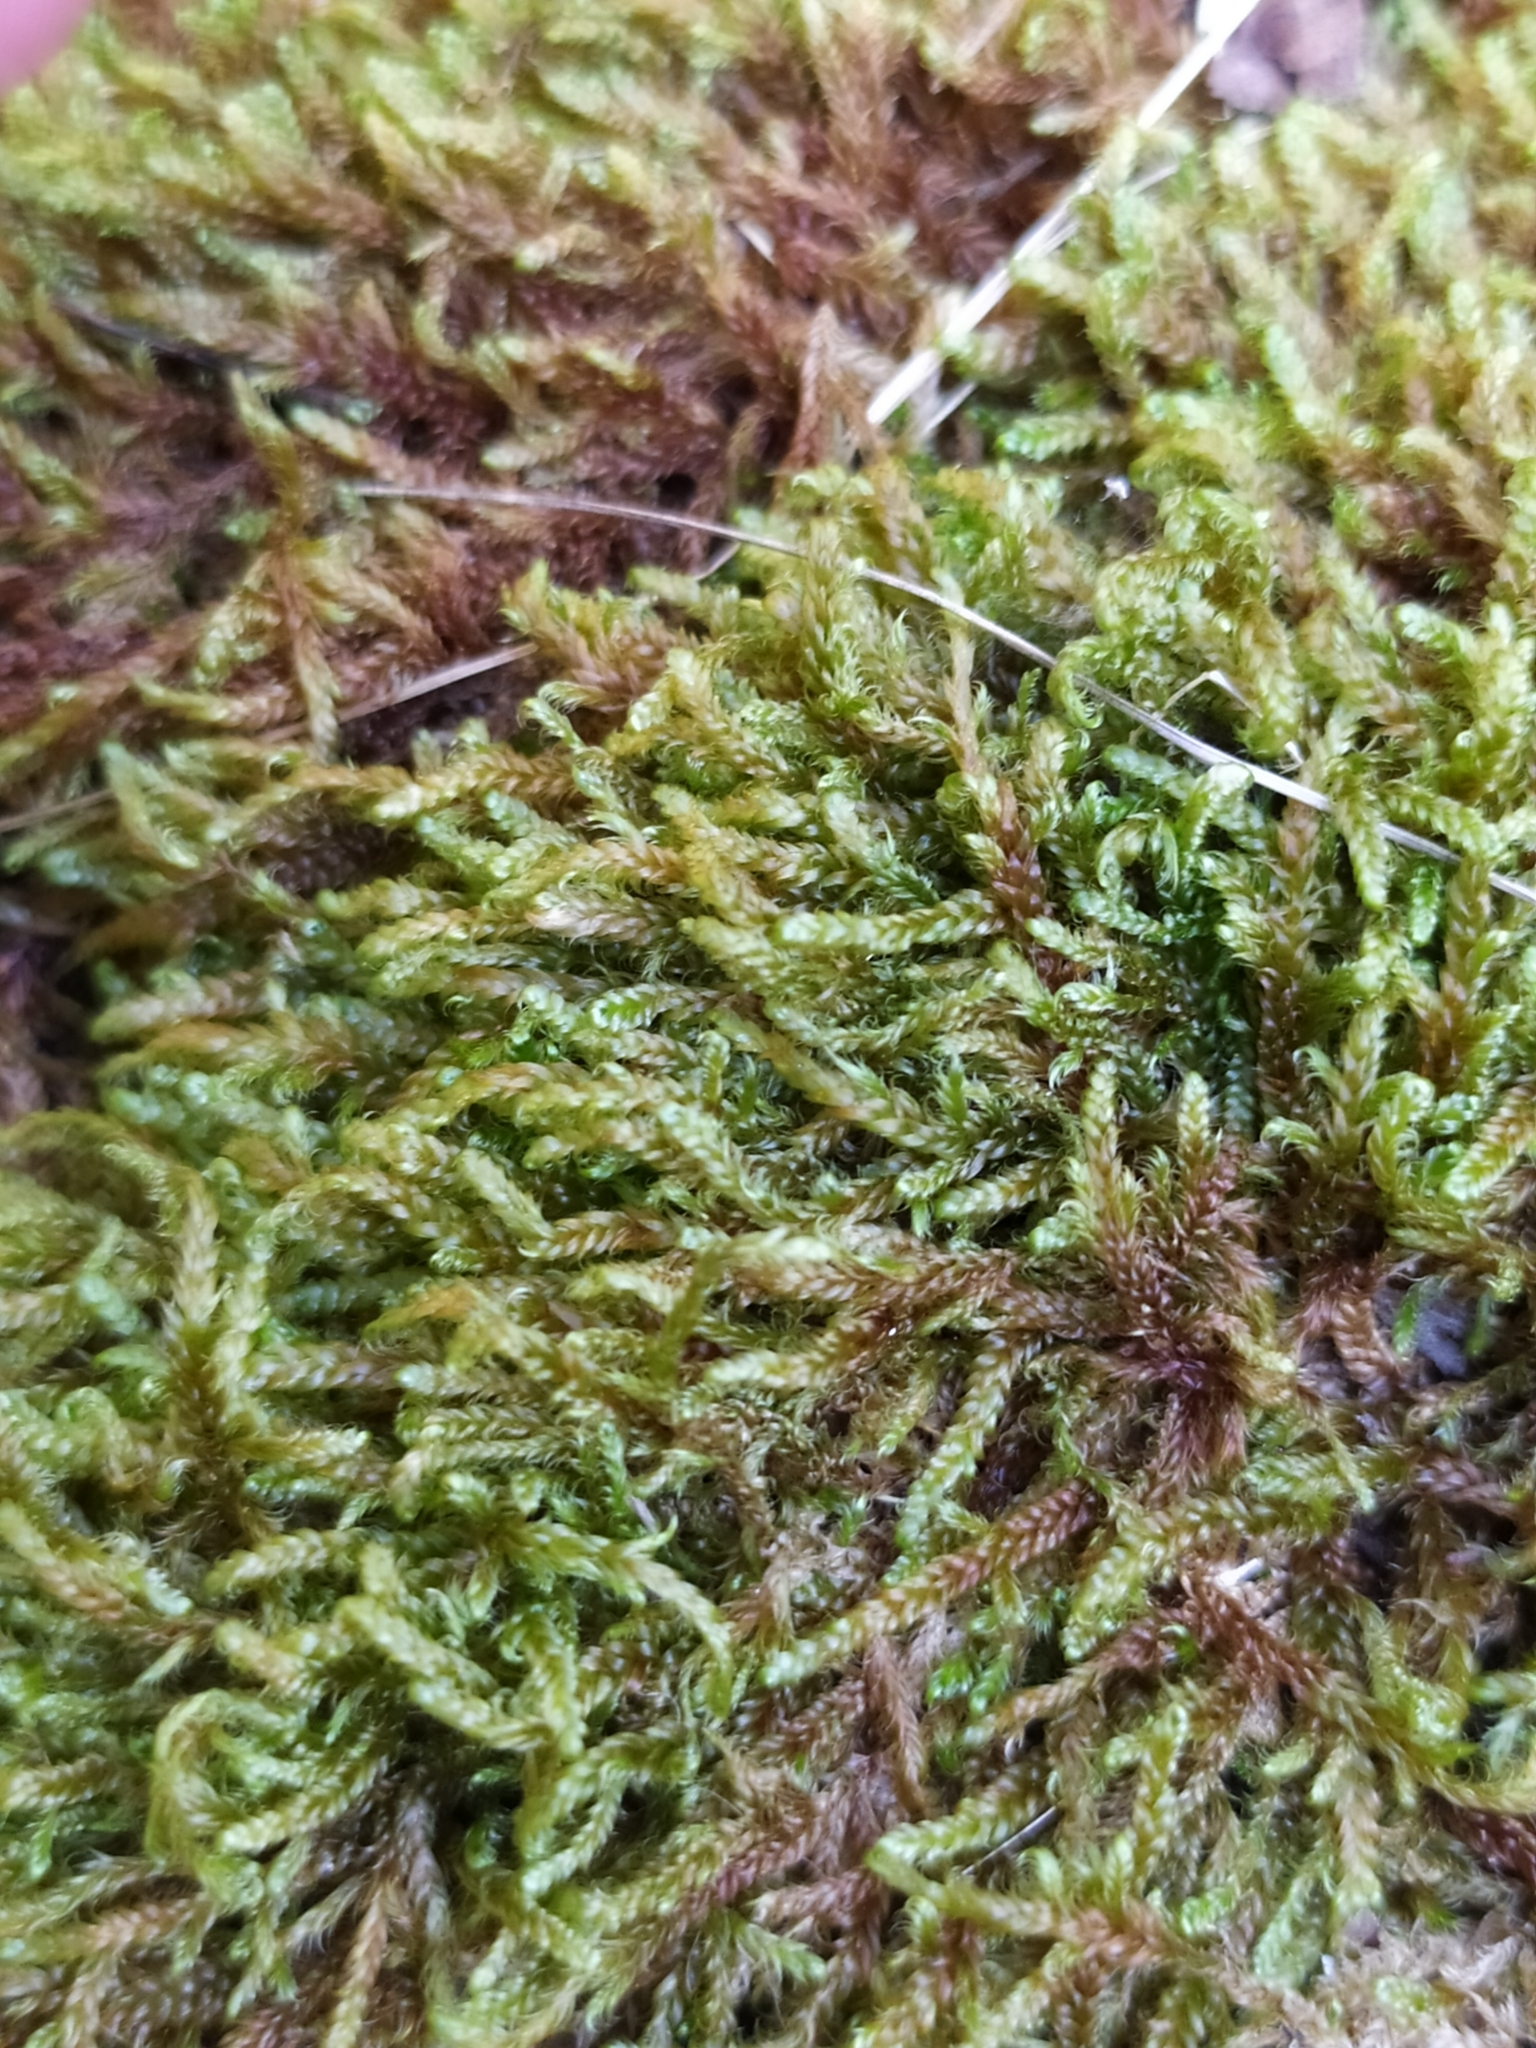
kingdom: Plantae
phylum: Bryophyta
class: Bryopsida
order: Hypnales
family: Hypnaceae
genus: Hypnum
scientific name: Hypnum cupressiforme
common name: Cypress-leaved plait-moss
